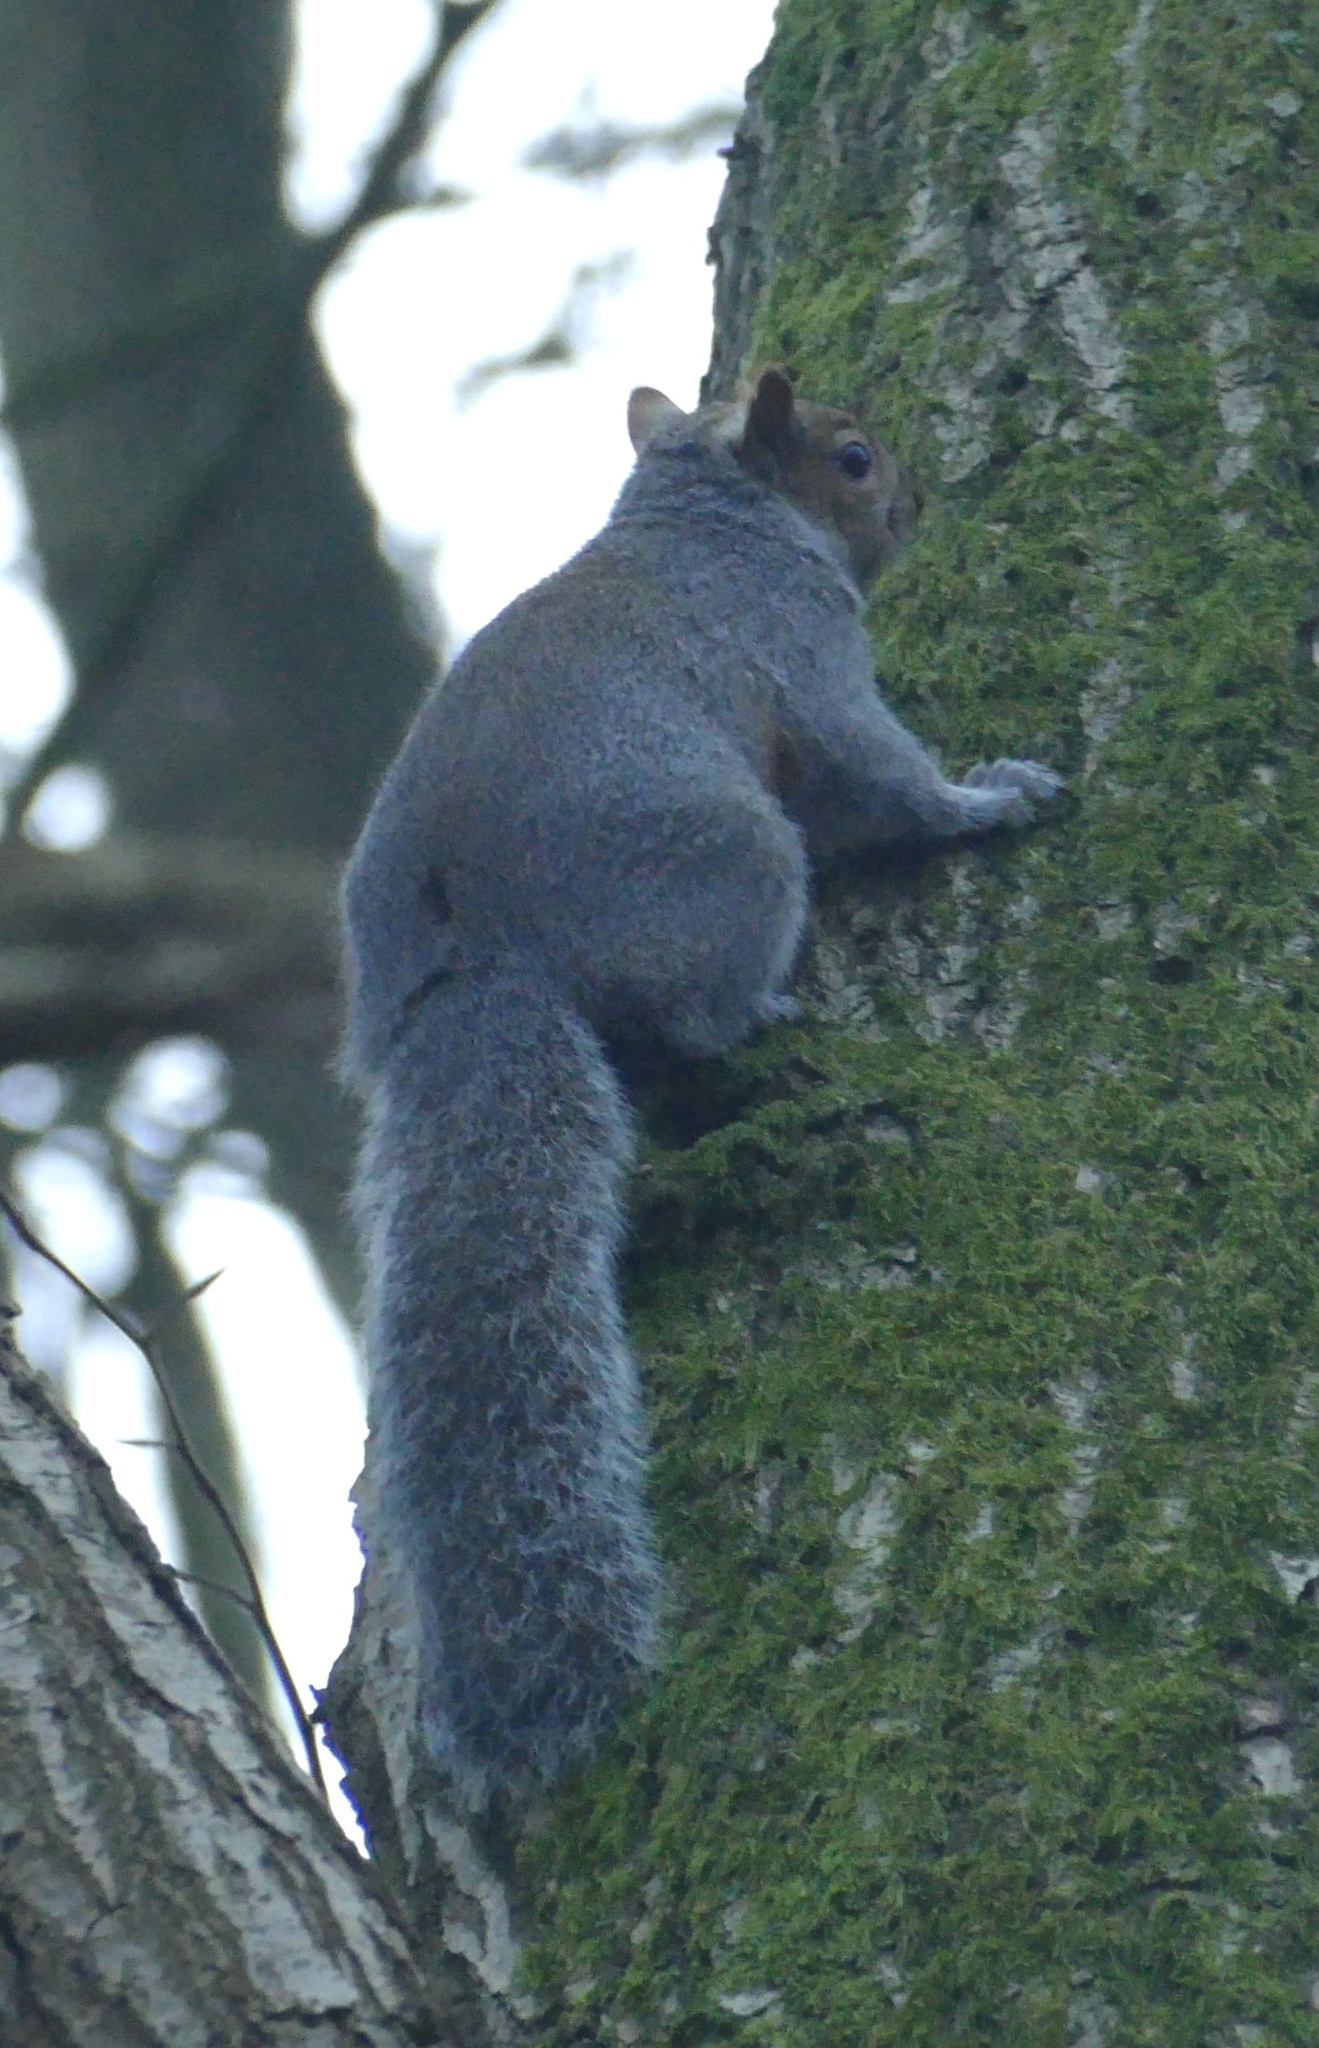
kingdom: Animalia
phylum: Chordata
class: Mammalia
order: Rodentia
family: Sciuridae
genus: Sciurus
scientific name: Sciurus carolinensis
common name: Eastern gray squirrel
